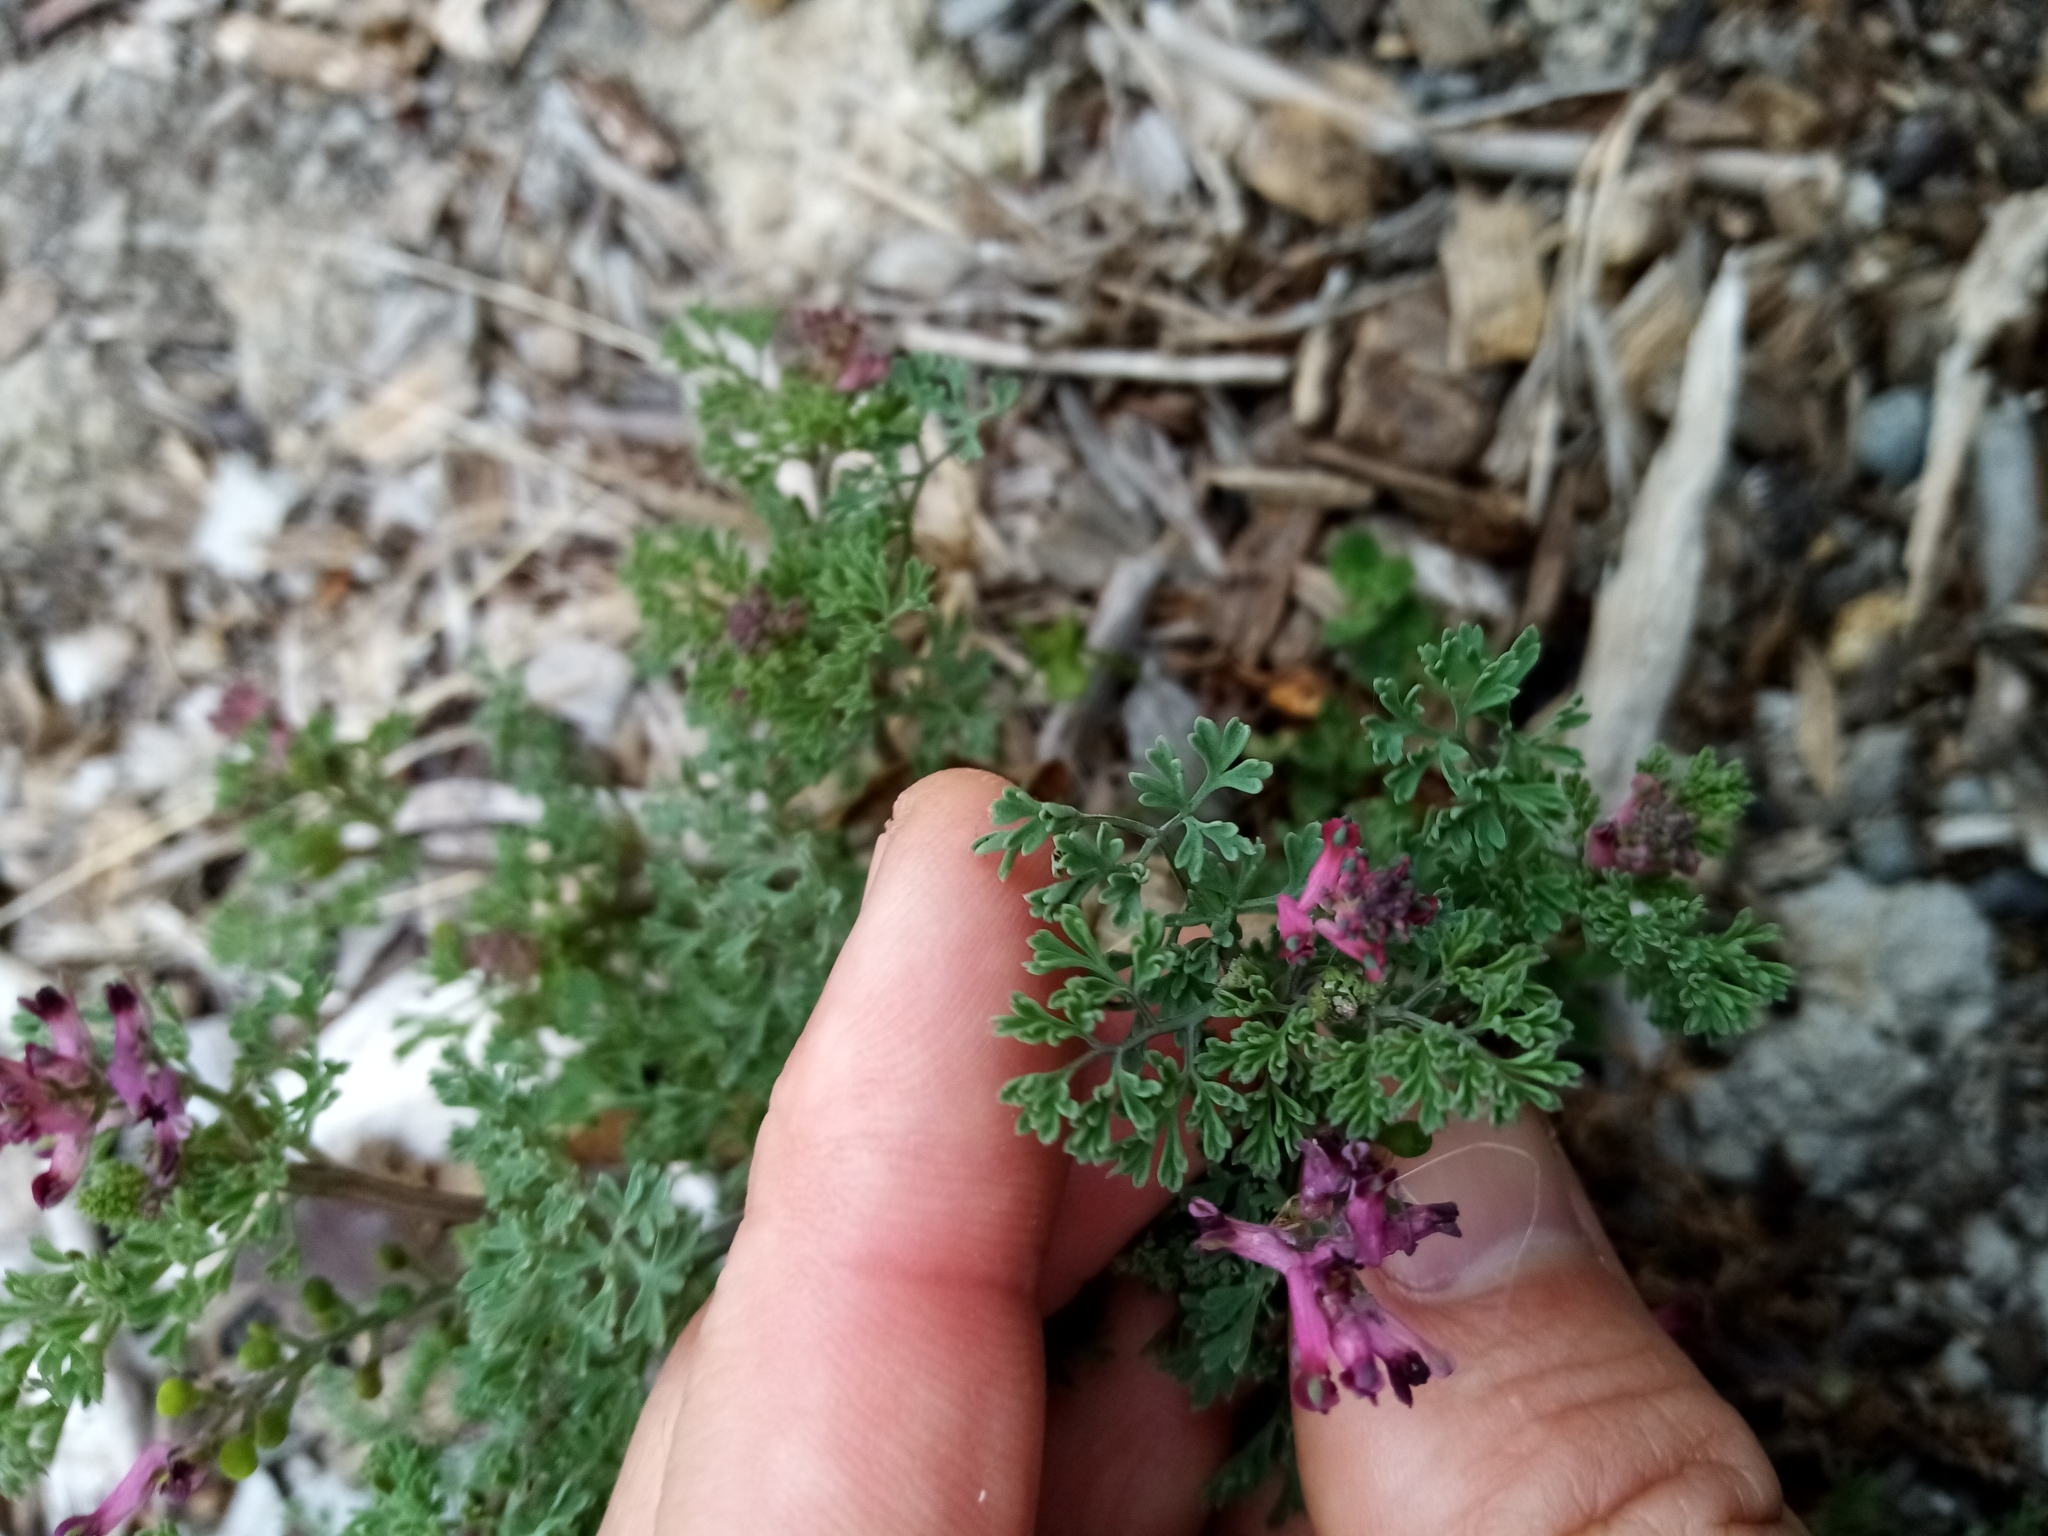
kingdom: Plantae
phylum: Tracheophyta
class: Magnoliopsida
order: Ranunculales
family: Papaveraceae
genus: Fumaria
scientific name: Fumaria officinalis
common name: Common fumitory
